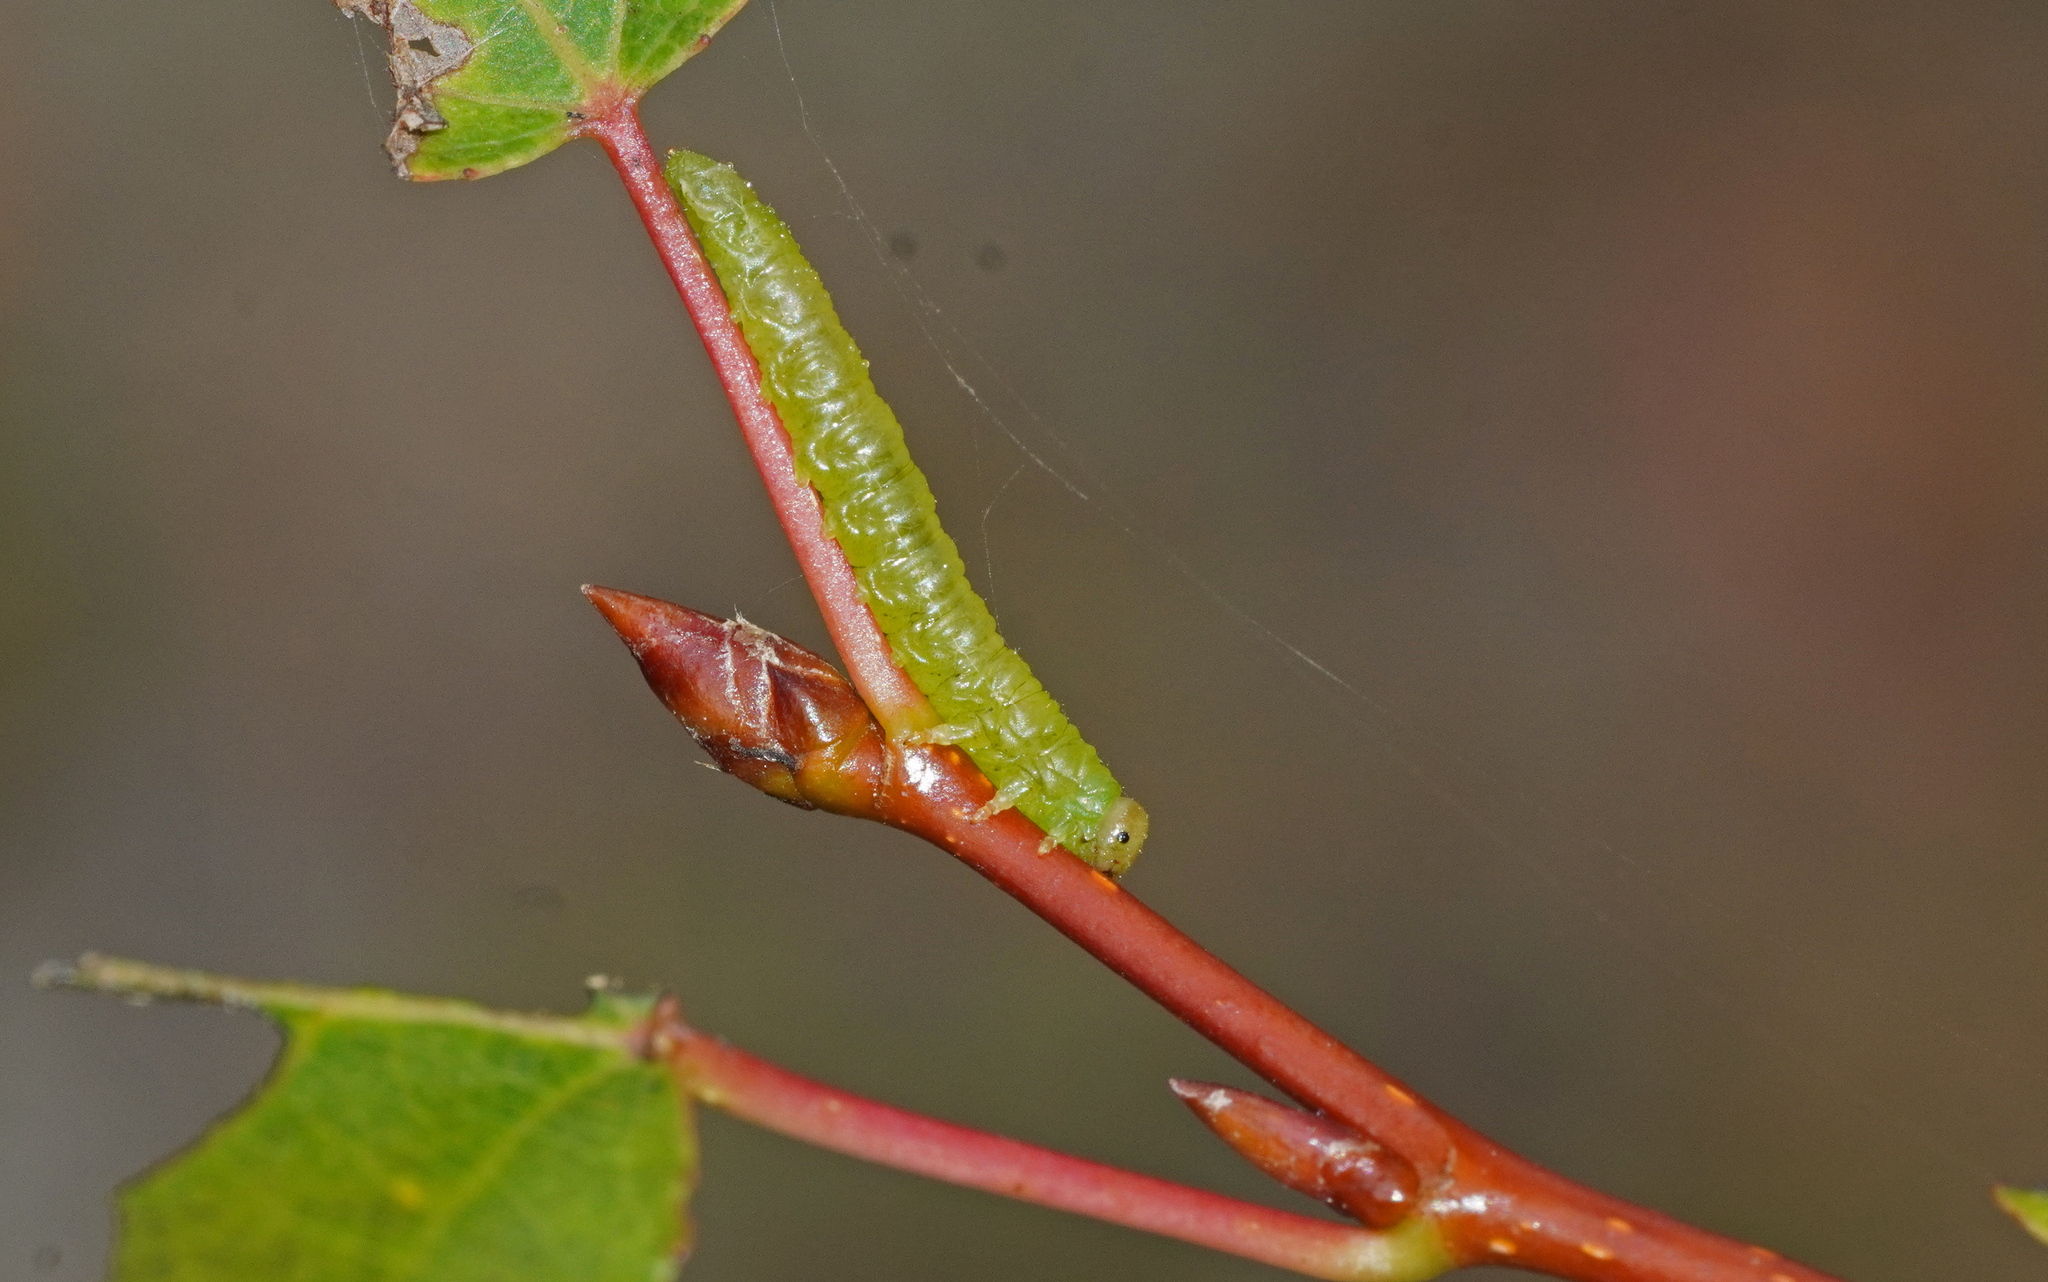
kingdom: Animalia
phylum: Arthropoda
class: Insecta
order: Hymenoptera
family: Tenthredinidae
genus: Nematus
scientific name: Nematus nigricornis
